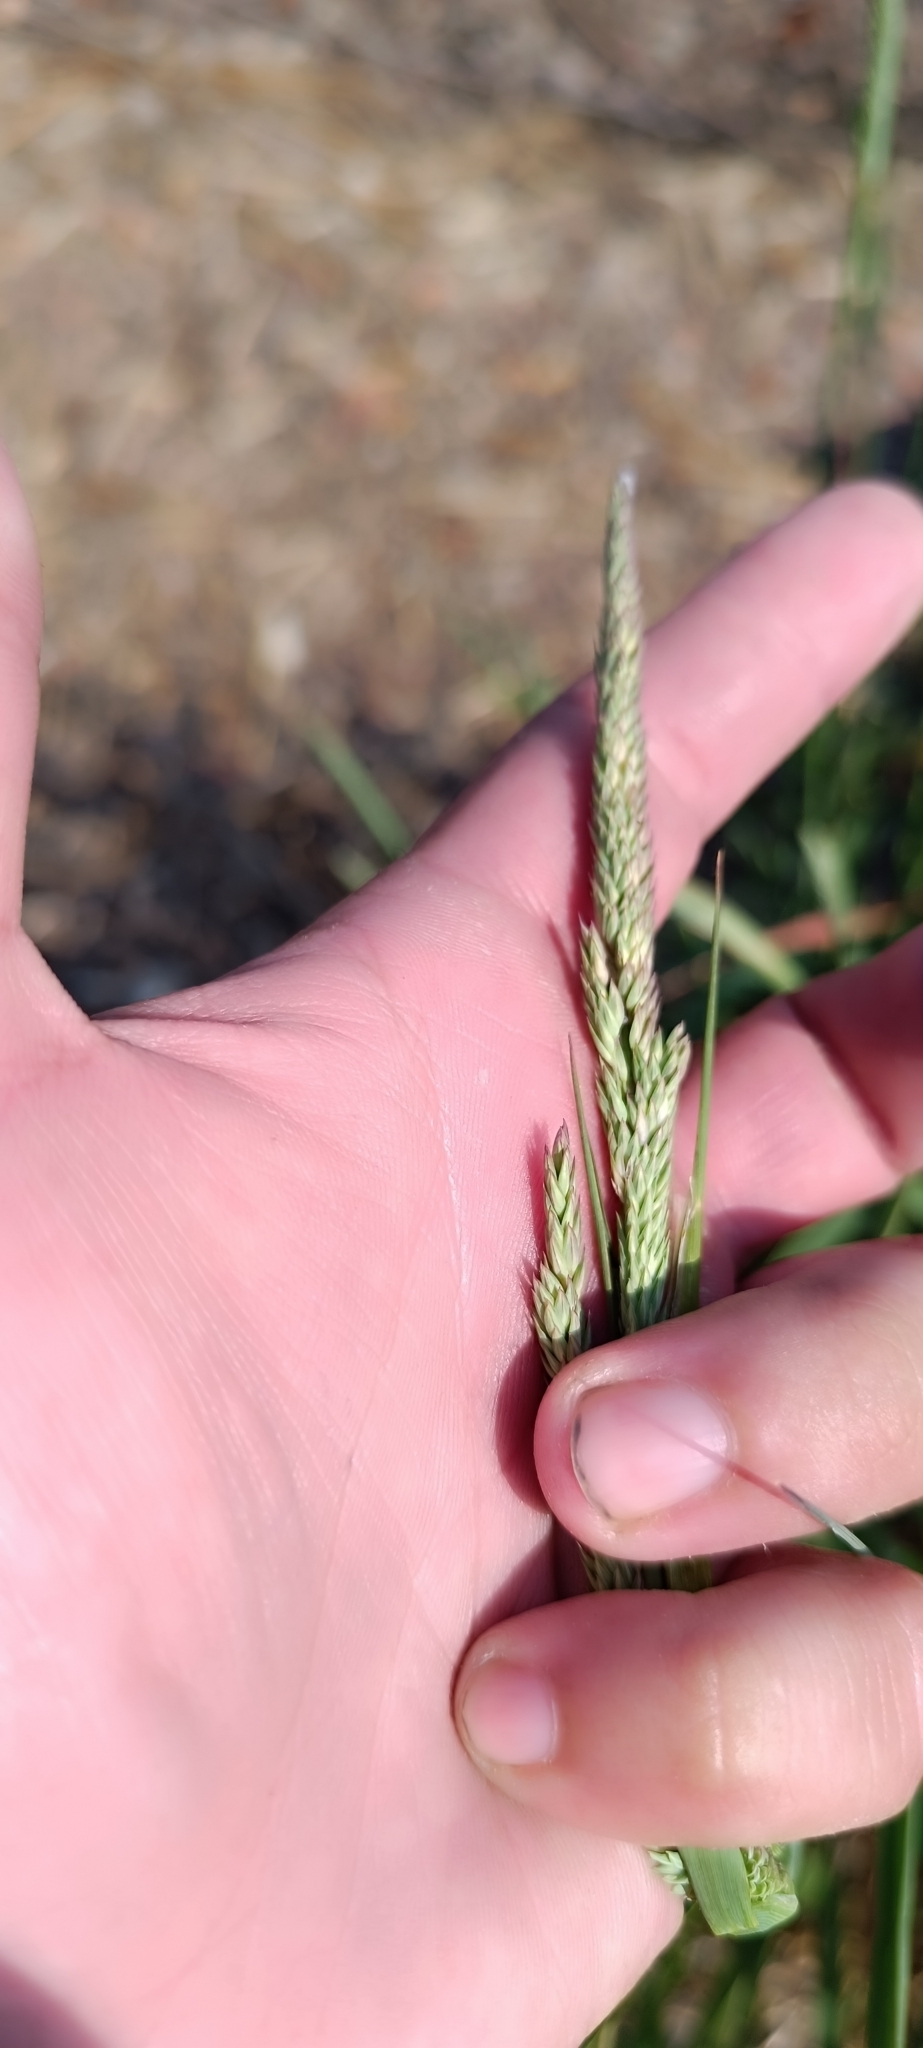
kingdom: Plantae
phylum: Tracheophyta
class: Liliopsida
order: Poales
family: Poaceae
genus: Phalaris
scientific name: Phalaris arundinacea
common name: Reed canary-grass
